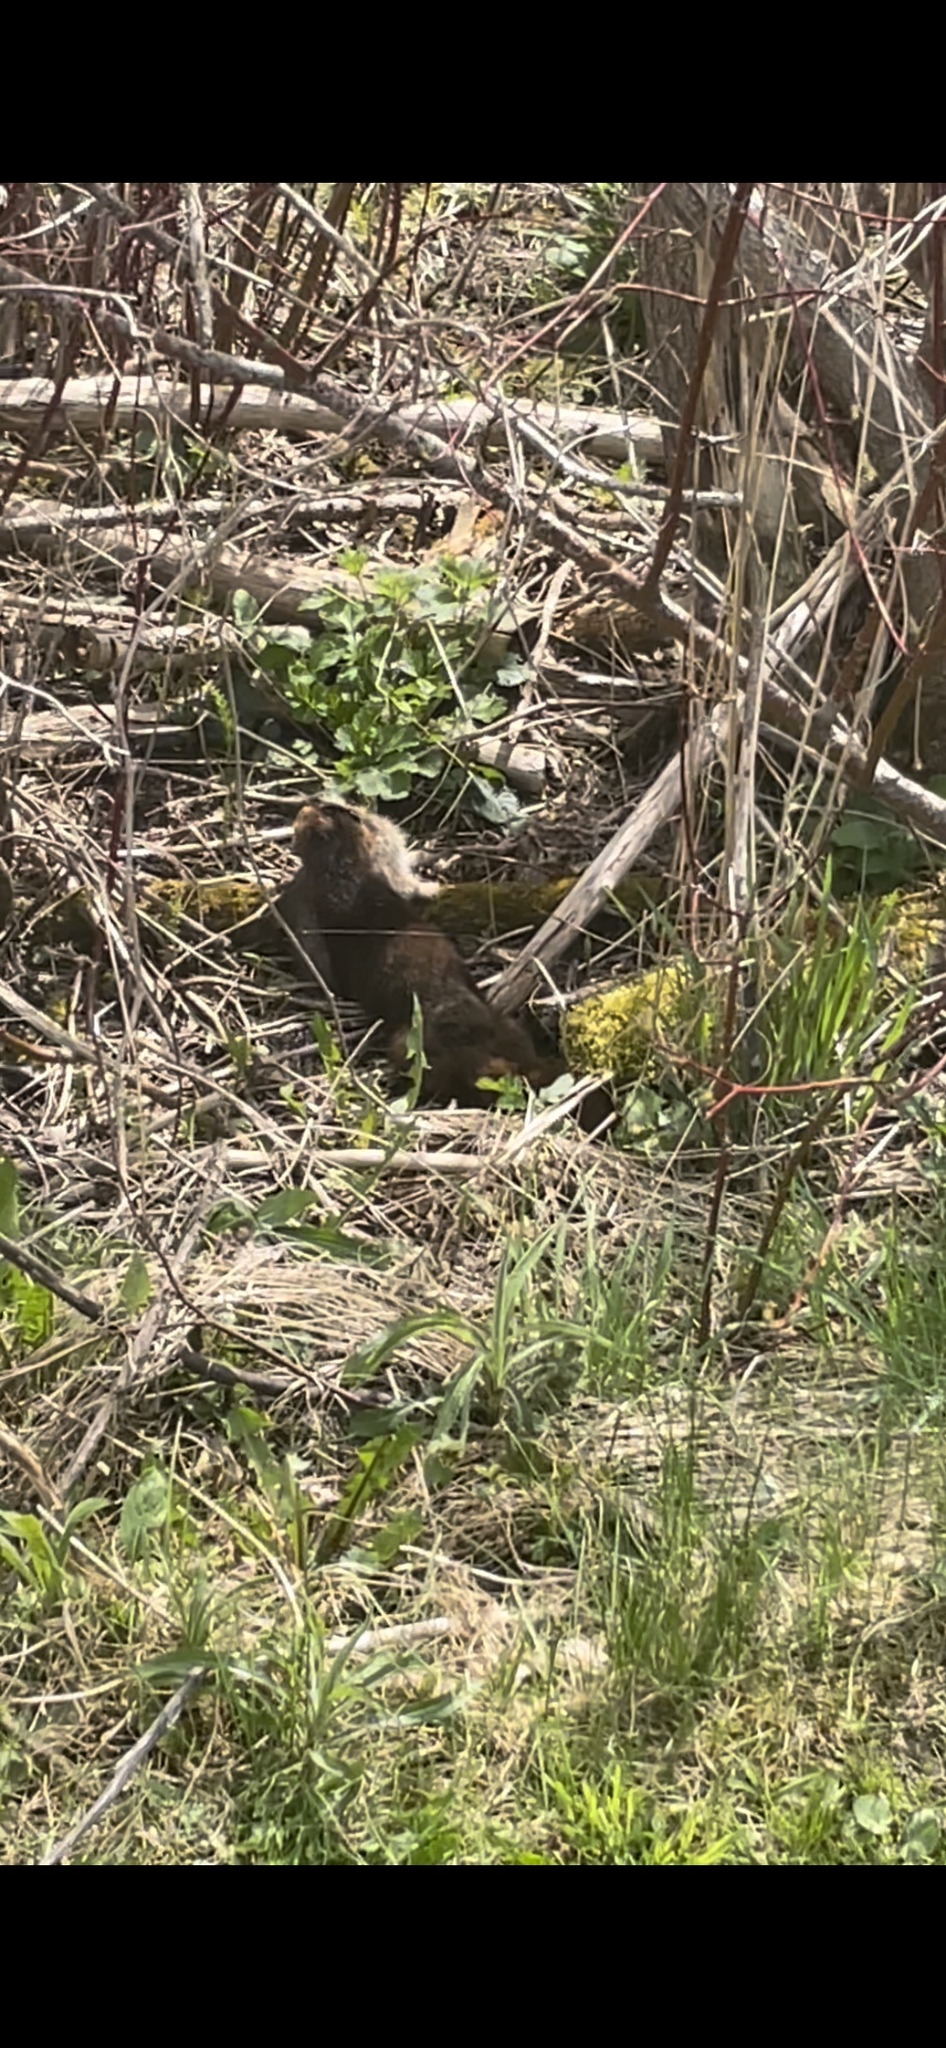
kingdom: Animalia
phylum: Chordata
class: Mammalia
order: Carnivora
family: Mustelidae
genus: Mustela
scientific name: Mustela
